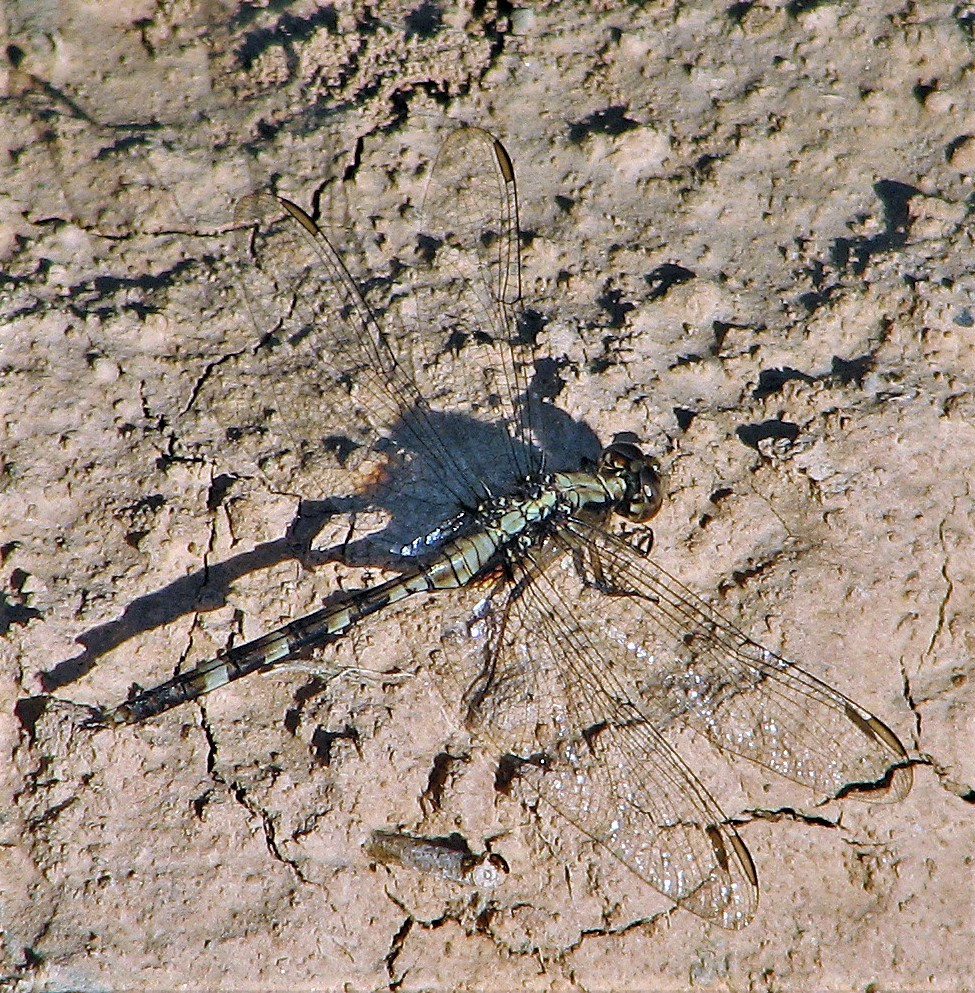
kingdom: Animalia
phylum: Arthropoda
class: Insecta
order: Odonata
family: Libellulidae
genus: Erythemis
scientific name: Erythemis plebeja
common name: Pin-tailed pondhawk
